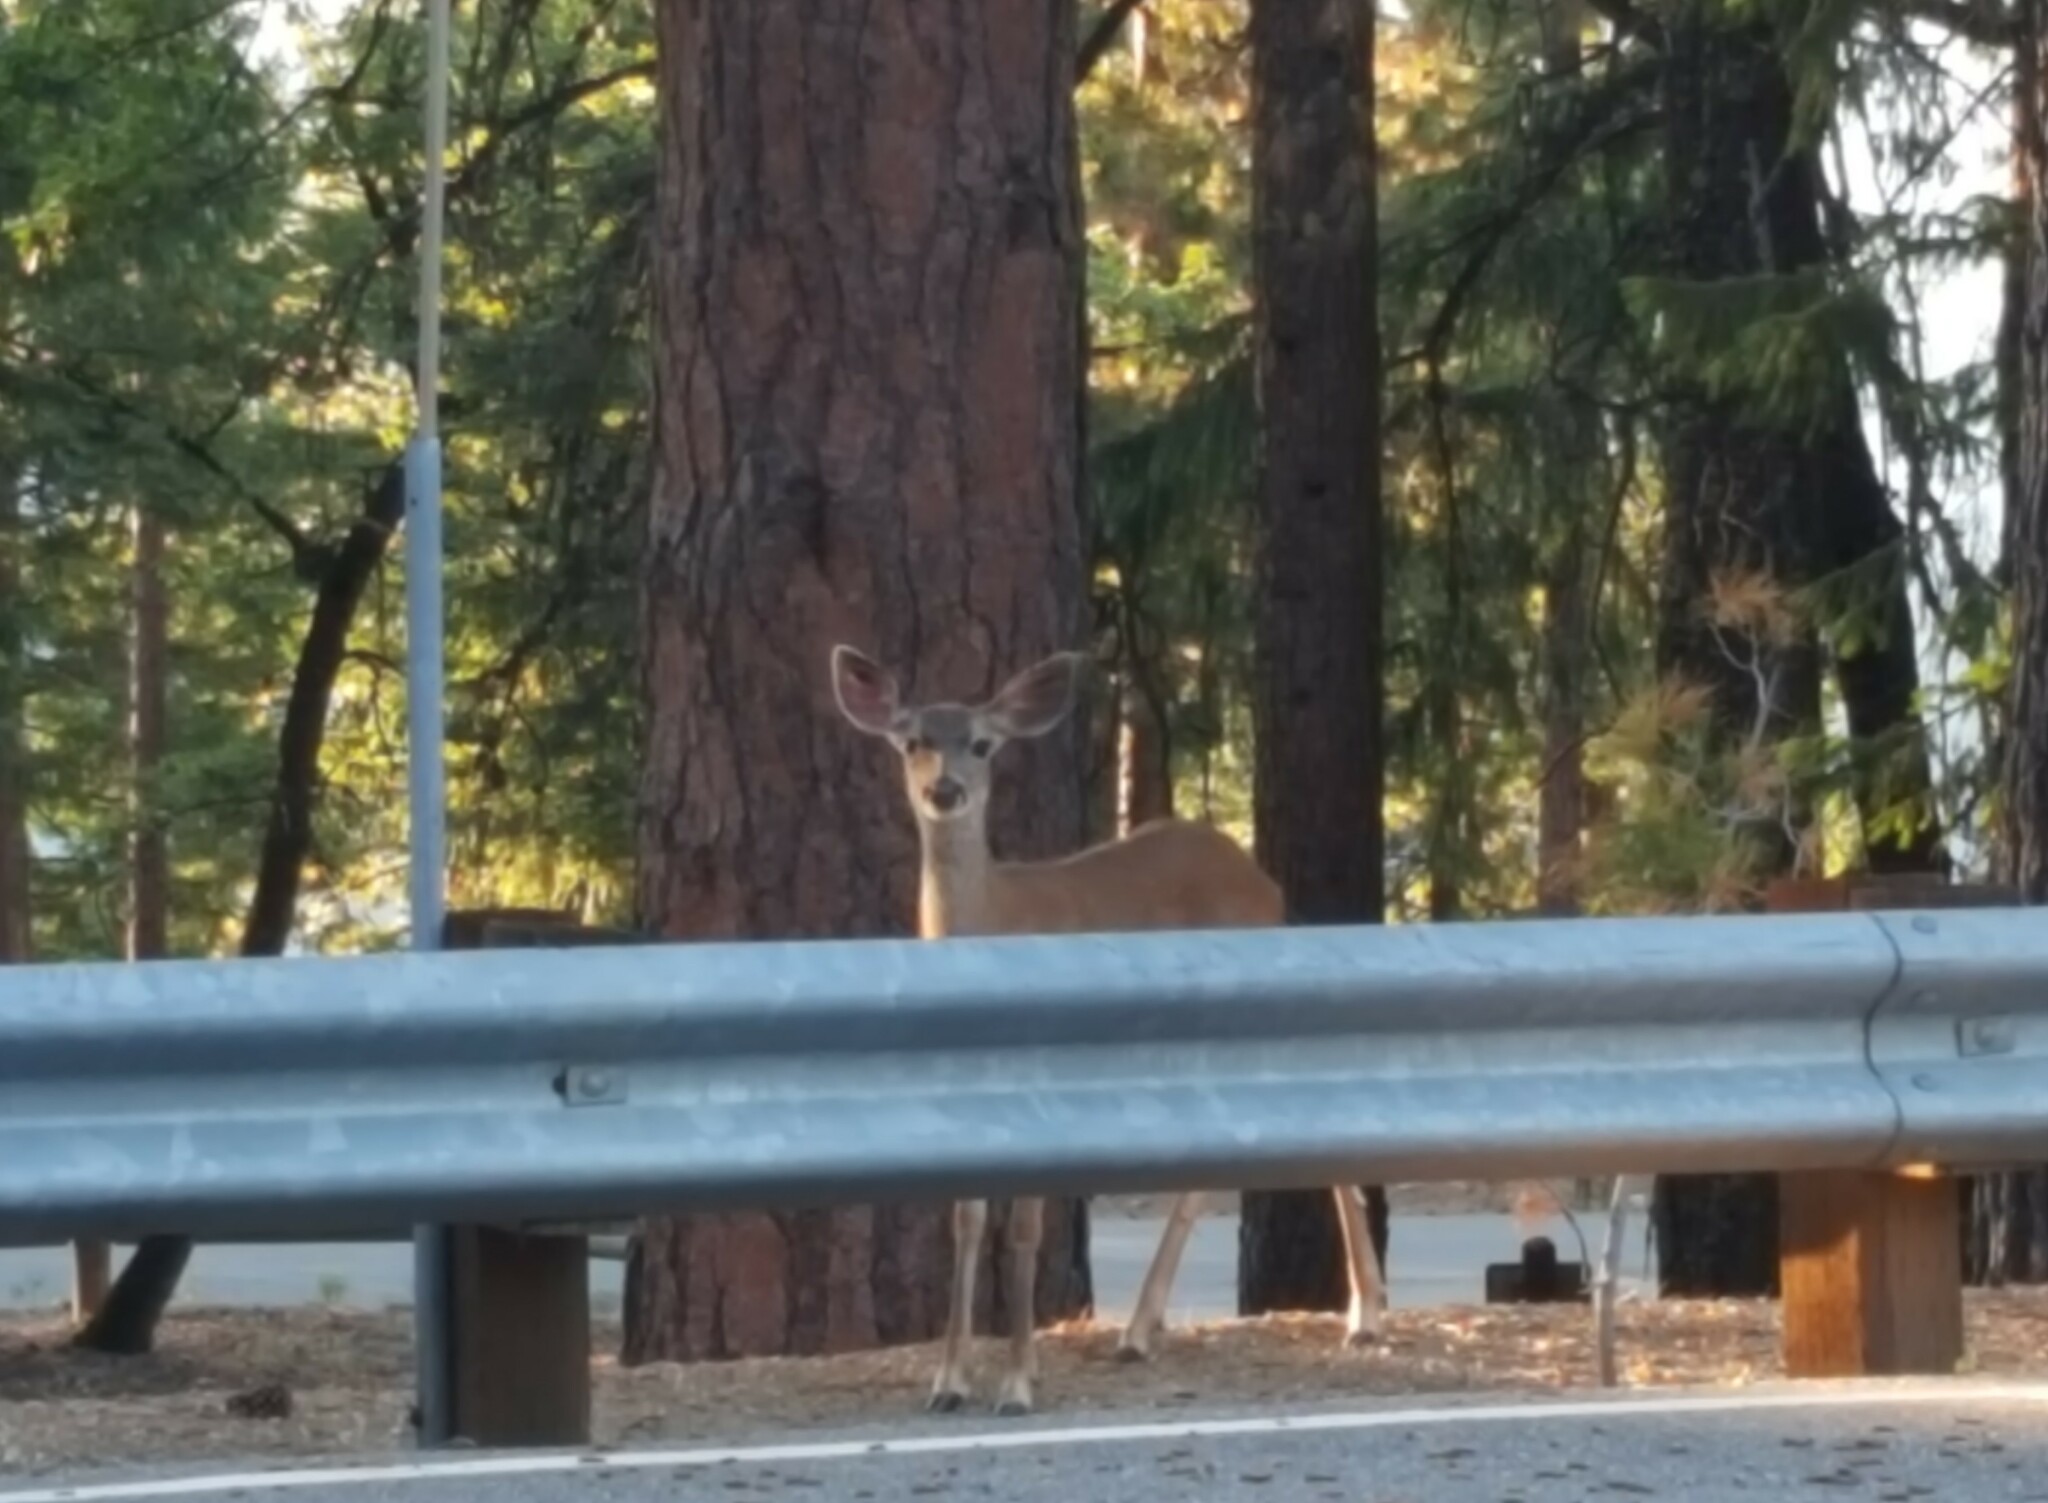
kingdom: Animalia
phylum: Chordata
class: Mammalia
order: Artiodactyla
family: Cervidae
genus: Odocoileus
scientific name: Odocoileus hemionus
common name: Mule deer
